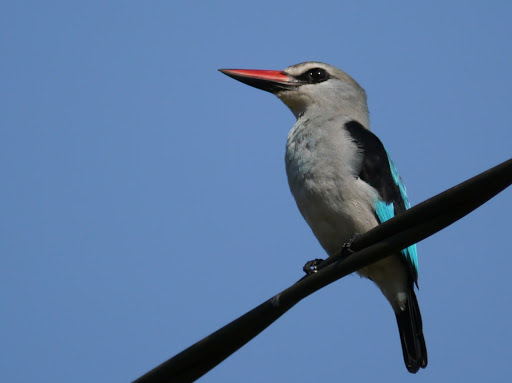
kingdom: Animalia
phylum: Chordata
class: Aves
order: Coraciiformes
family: Alcedinidae
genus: Halcyon
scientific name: Halcyon senegalensis
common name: Woodland kingfisher
